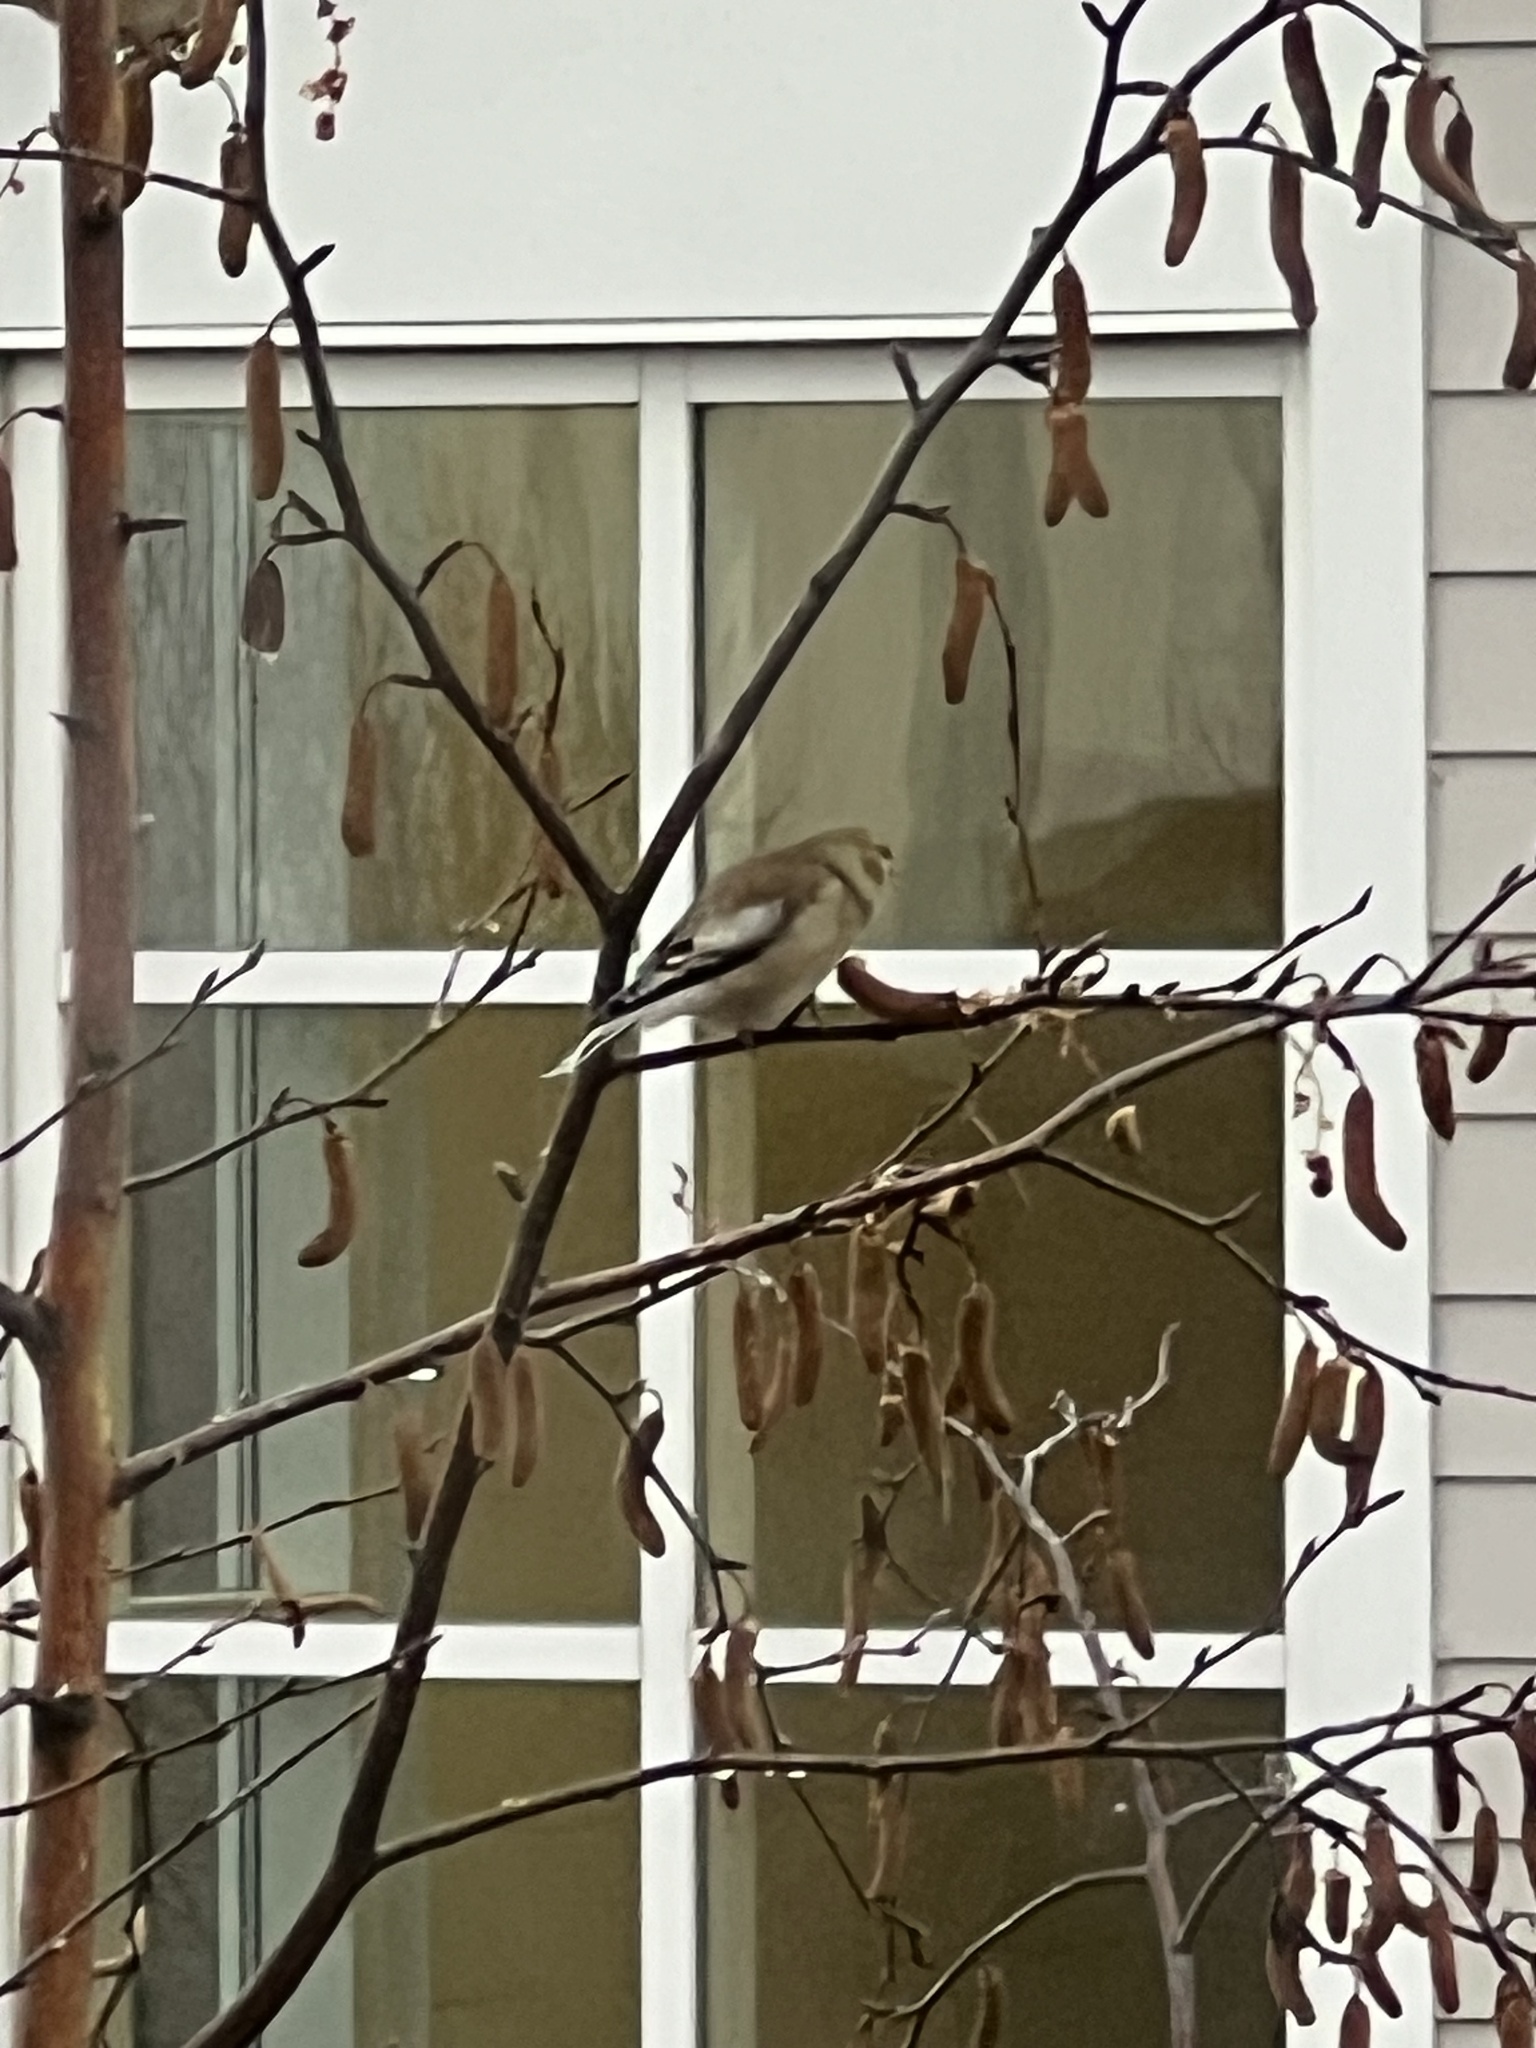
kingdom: Animalia
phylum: Chordata
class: Aves
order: Passeriformes
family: Fringillidae
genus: Spinus
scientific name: Spinus tristis
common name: American goldfinch
